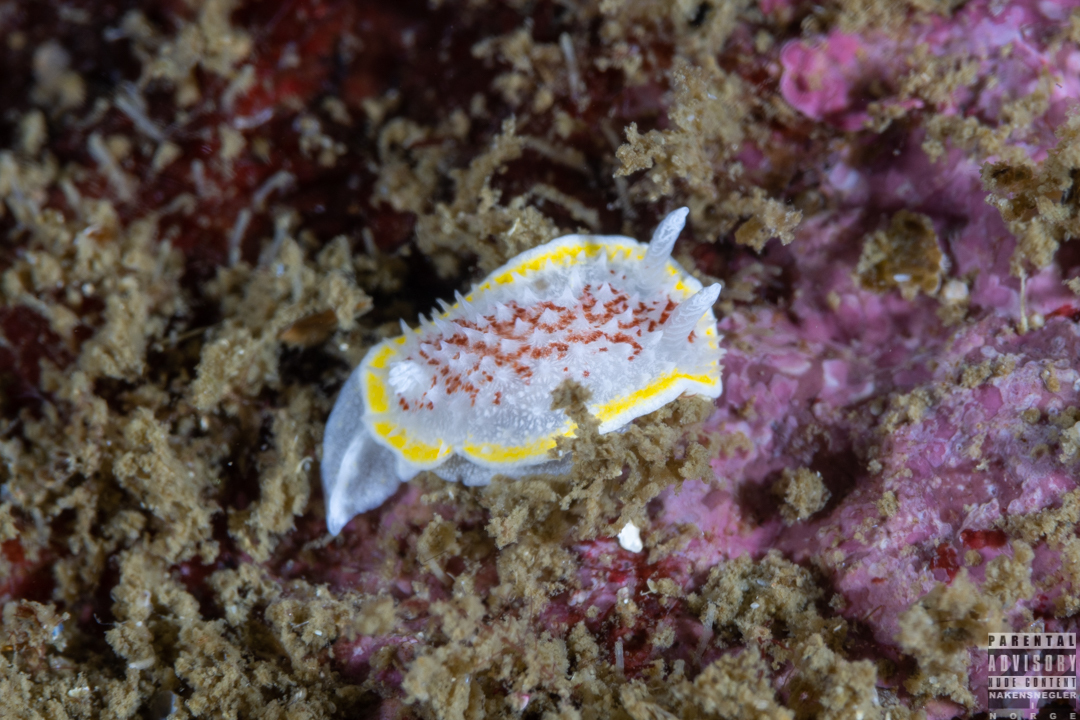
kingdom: Animalia
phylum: Mollusca
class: Gastropoda
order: Nudibranchia
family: Calycidorididae
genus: Diaphorodoris
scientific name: Diaphorodoris luteocincta
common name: Fried egg nudibranch
